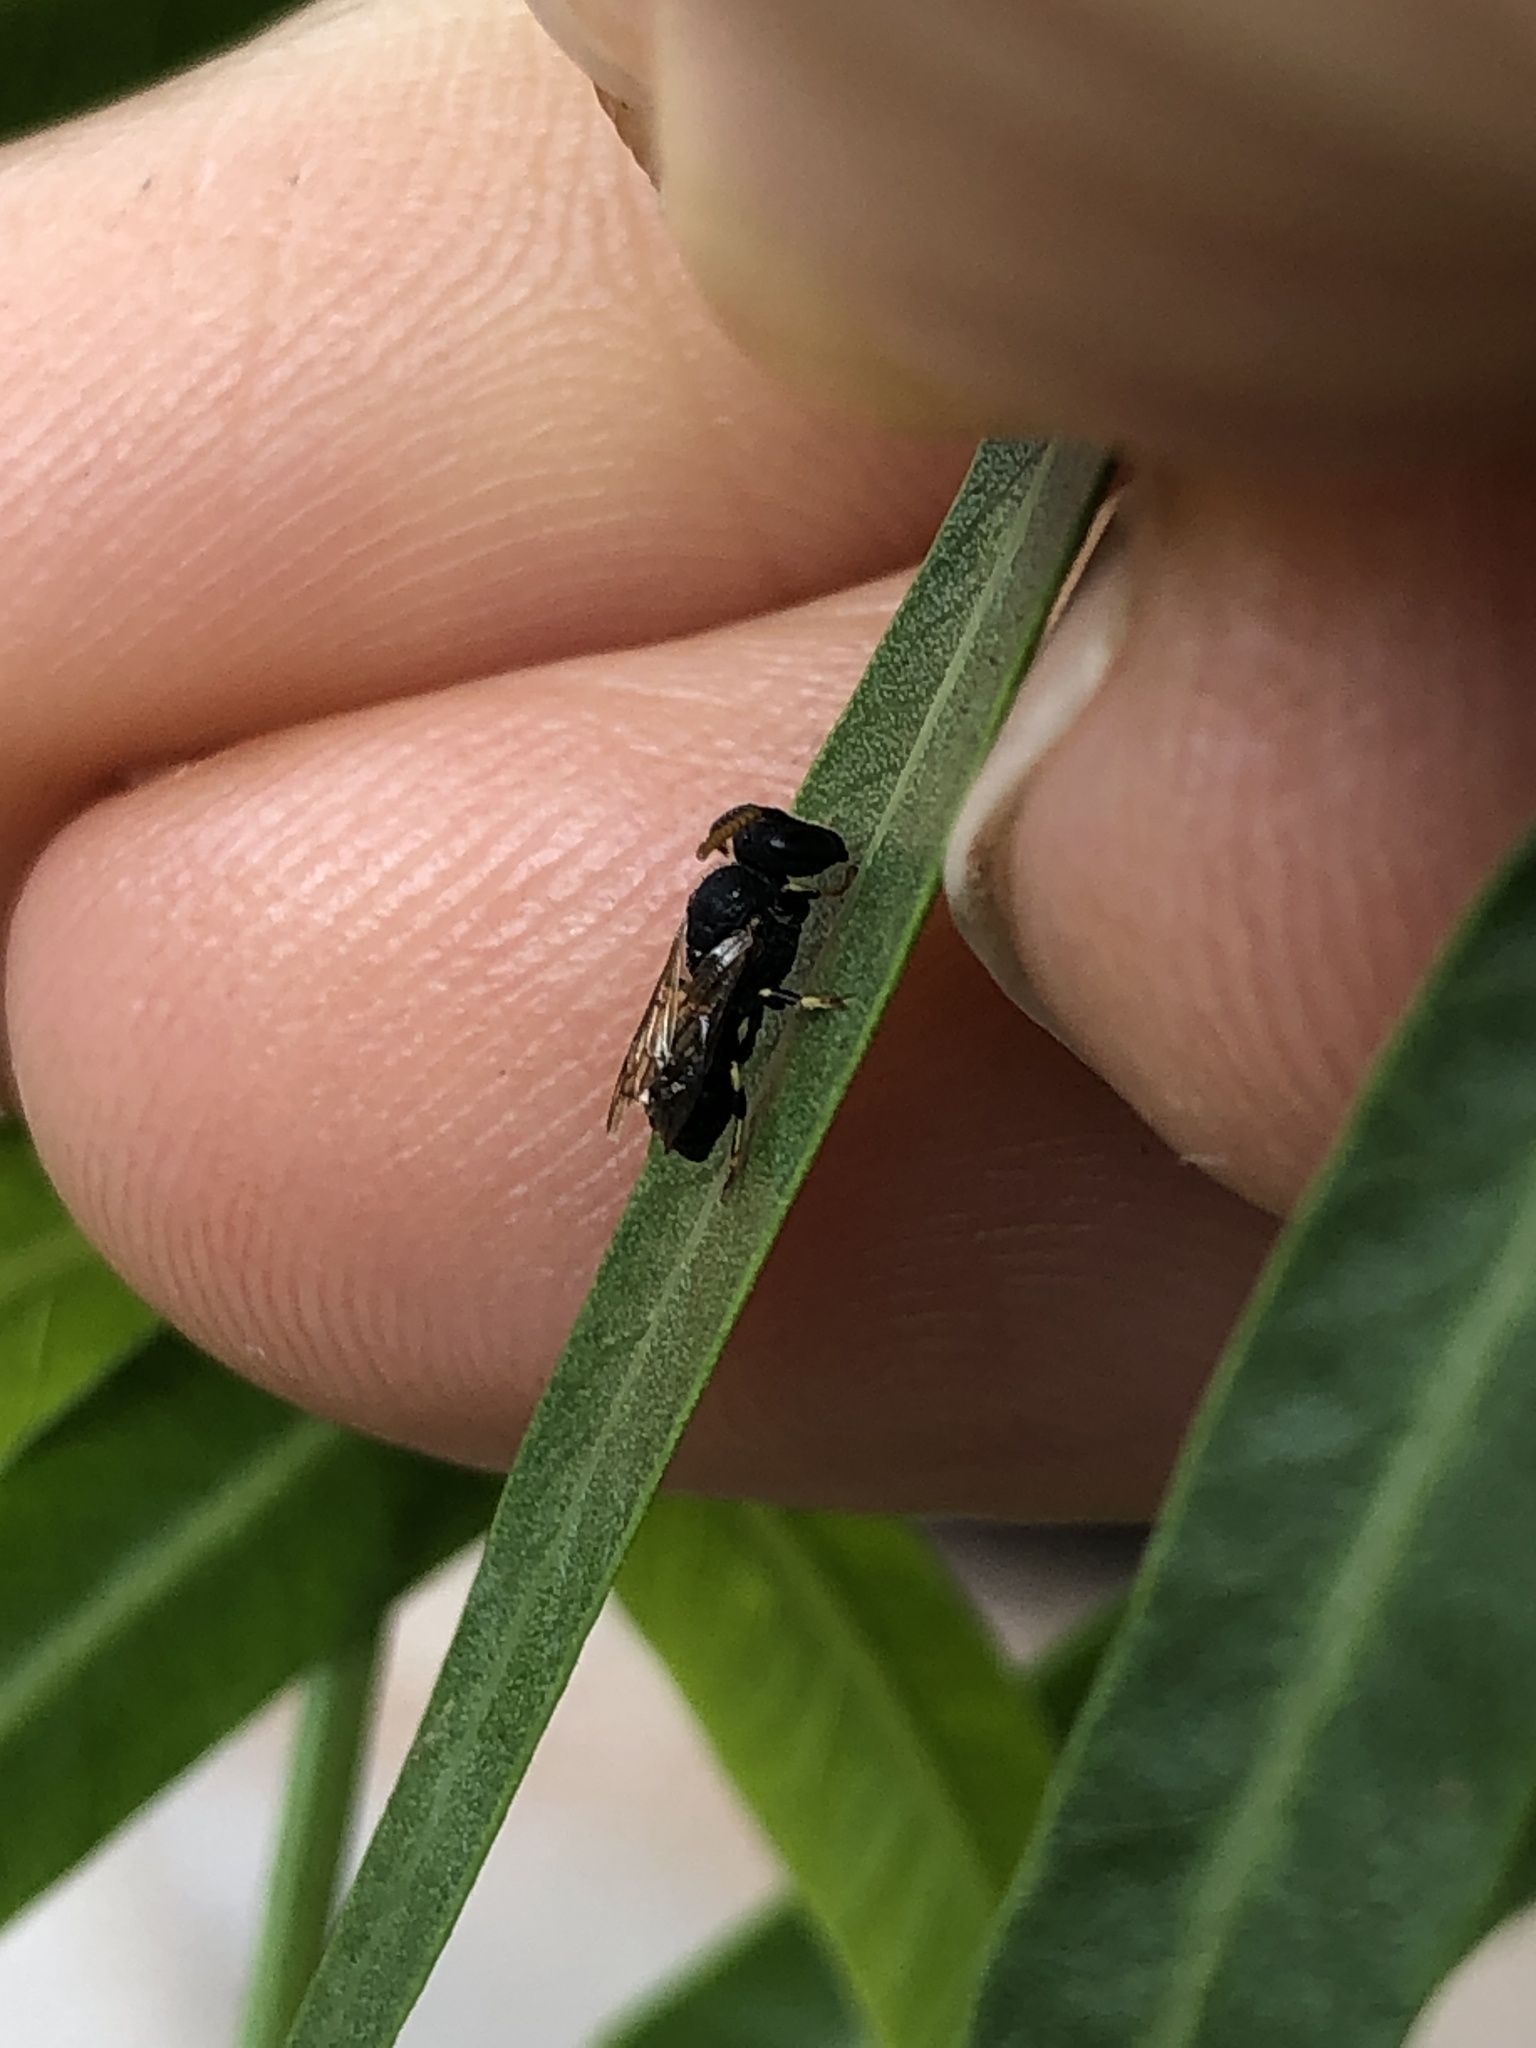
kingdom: Animalia
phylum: Arthropoda
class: Insecta
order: Hymenoptera
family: Colletidae
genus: Hylaeus
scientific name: Hylaeus punctatus
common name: Punctate masked bee
